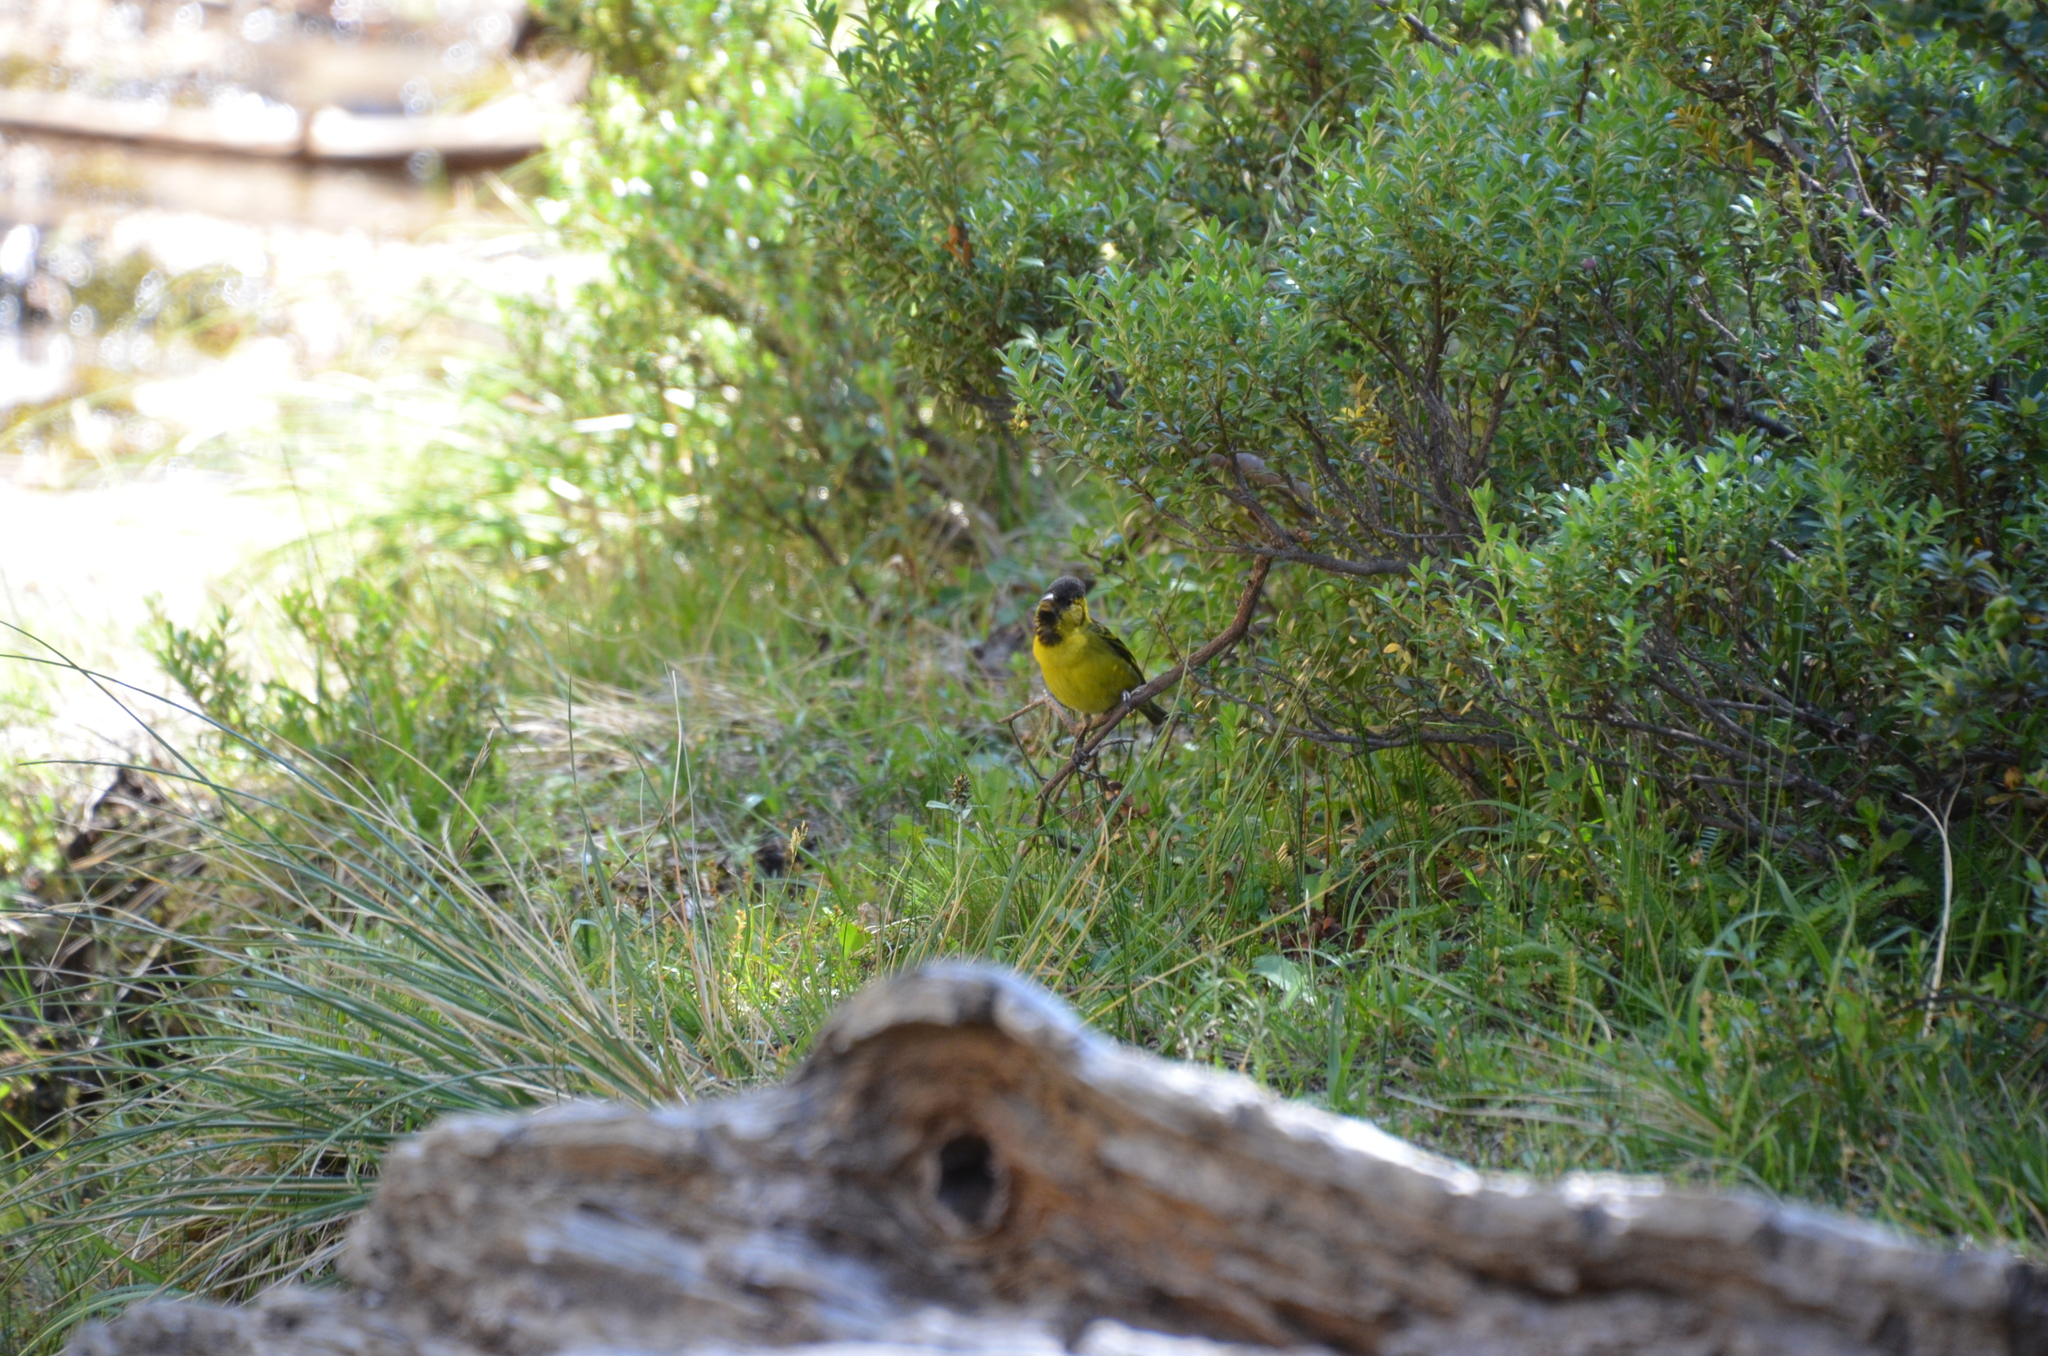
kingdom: Animalia
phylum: Chordata
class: Aves
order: Passeriformes
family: Fringillidae
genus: Spinus
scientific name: Spinus barbatus
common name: Black-chinned siskin
